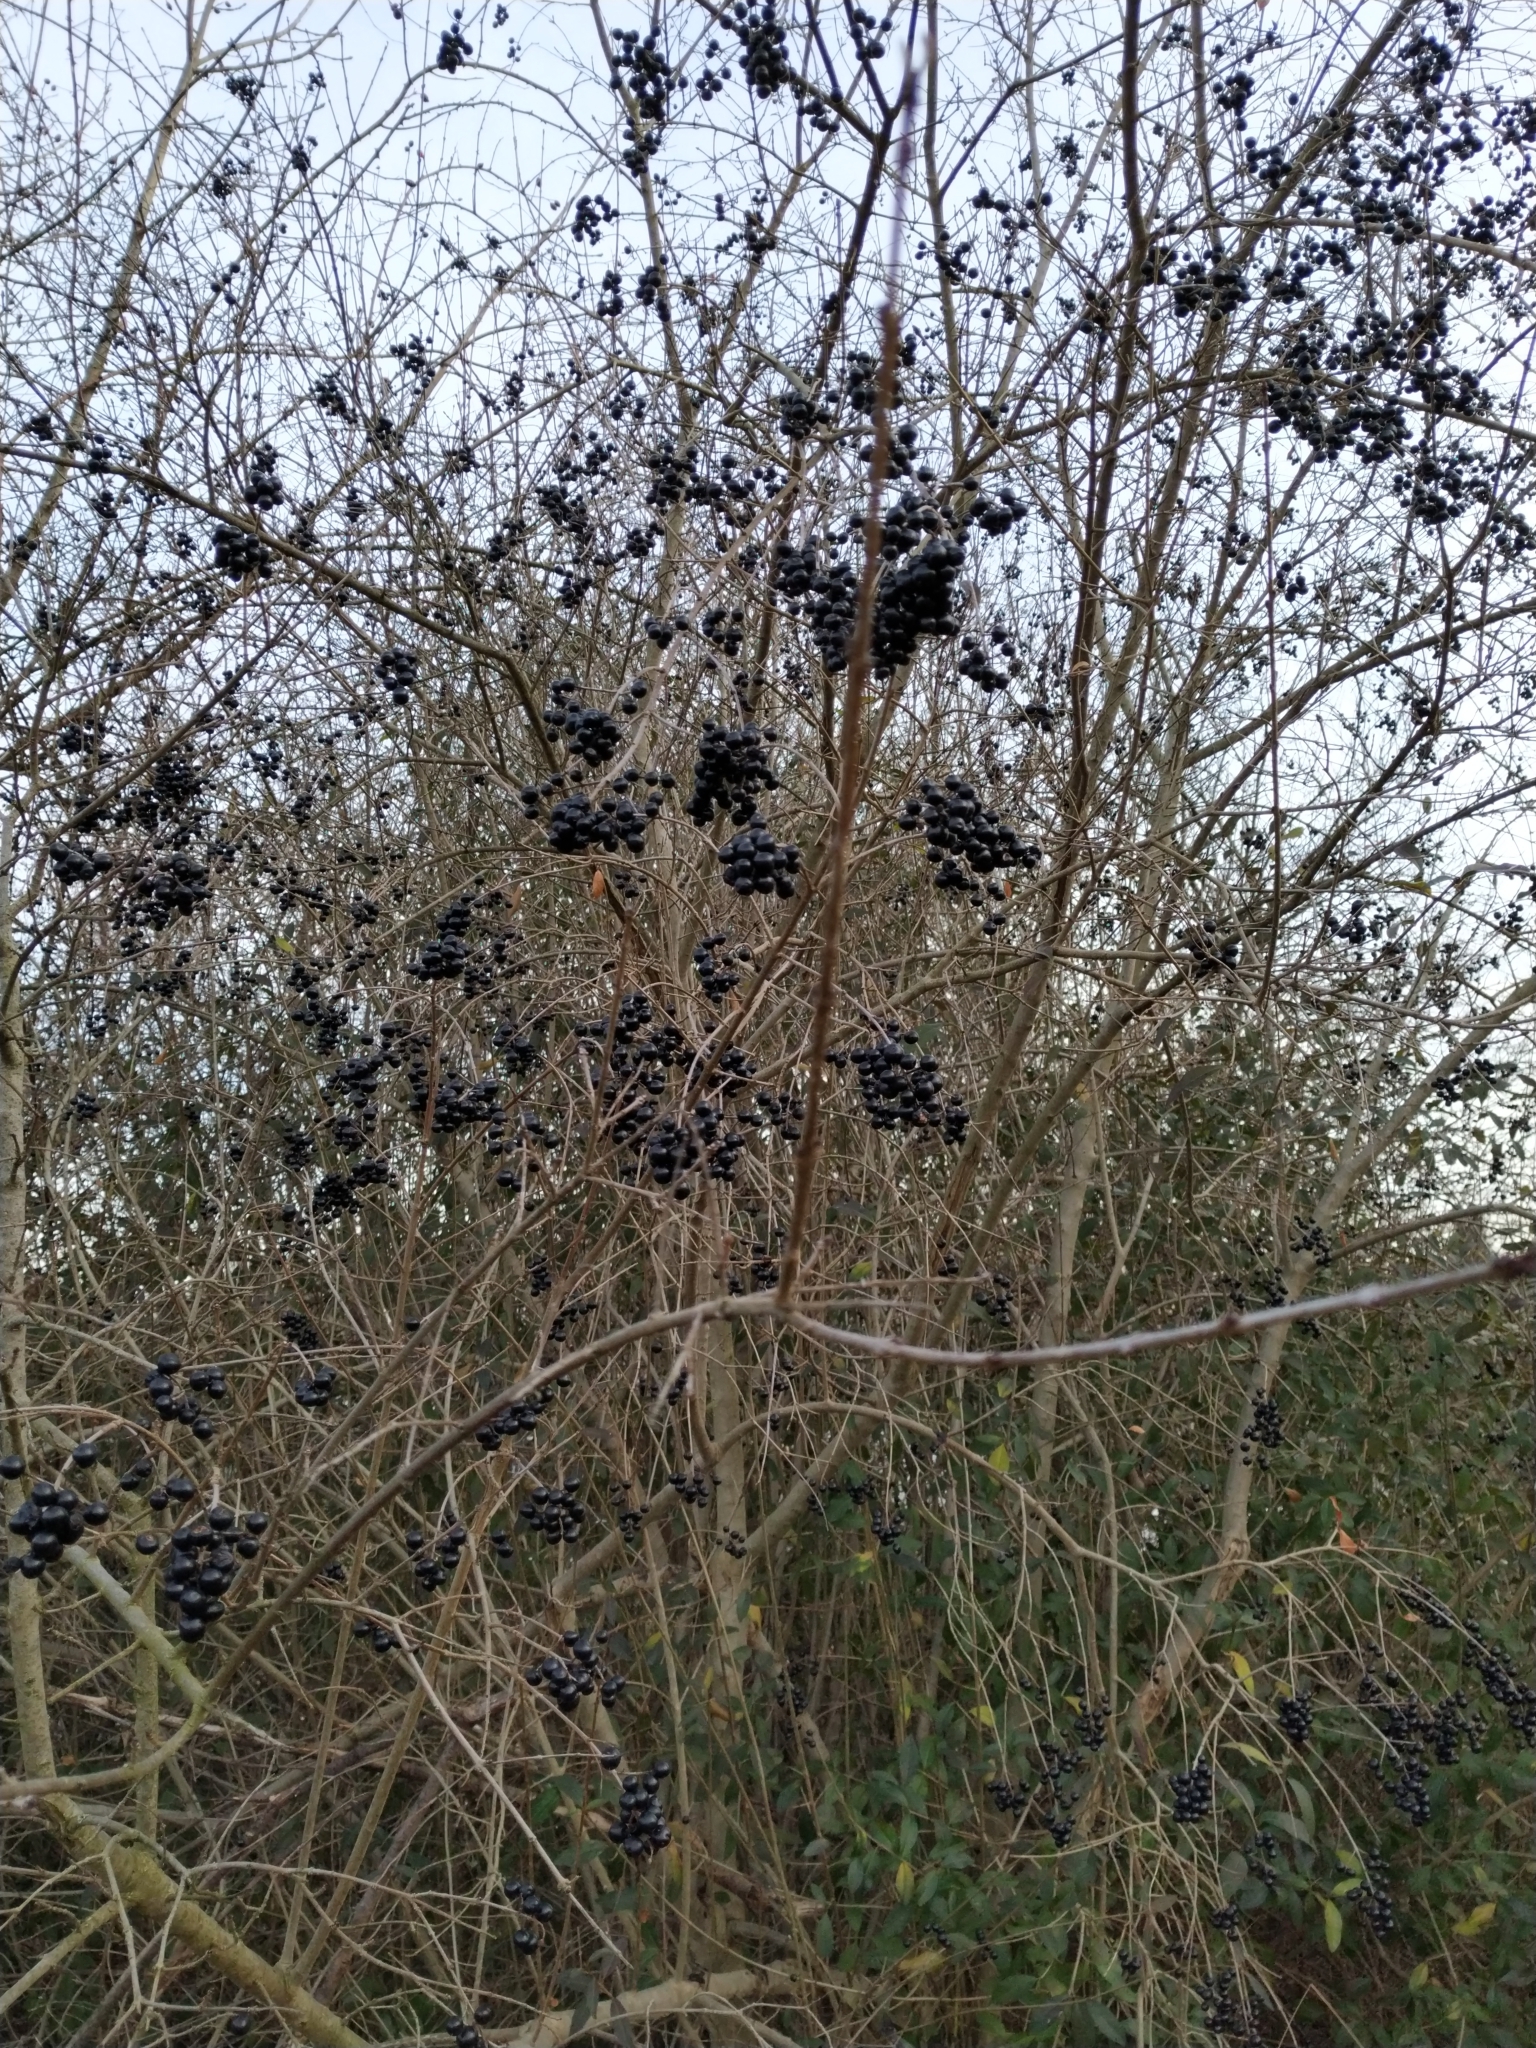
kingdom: Plantae
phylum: Tracheophyta
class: Magnoliopsida
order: Lamiales
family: Oleaceae
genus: Ligustrum
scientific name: Ligustrum vulgare
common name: Wild privet
